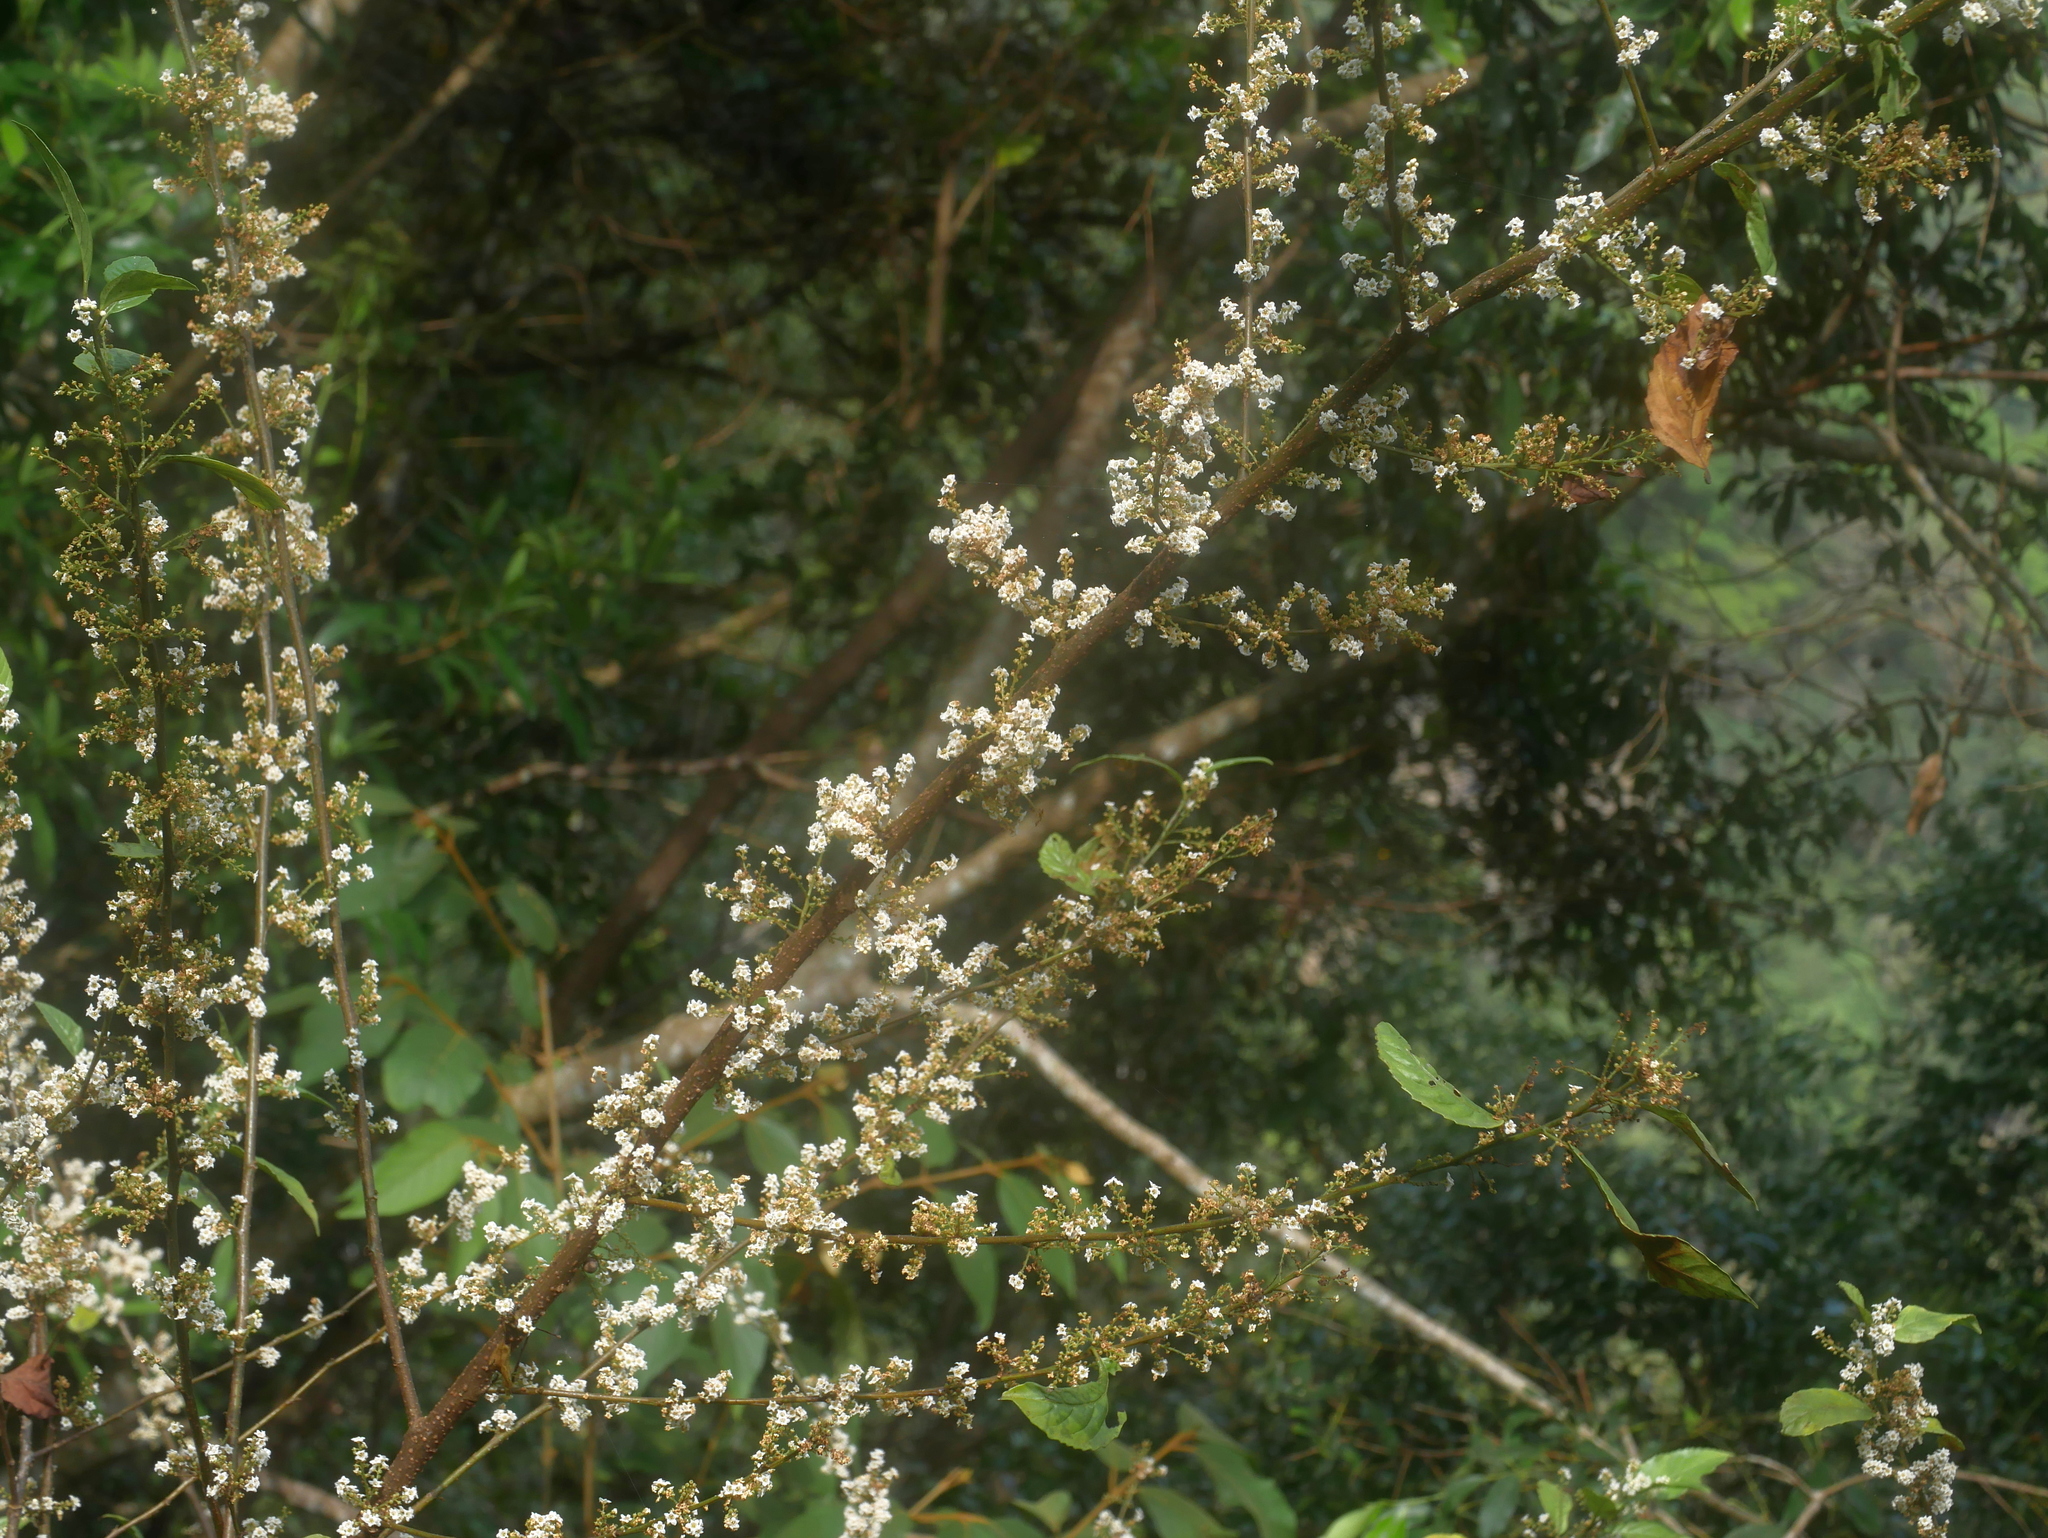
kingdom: Plantae
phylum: Tracheophyta
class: Magnoliopsida
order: Ericales
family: Primulaceae
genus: Maesa
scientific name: Maesa perlaria
